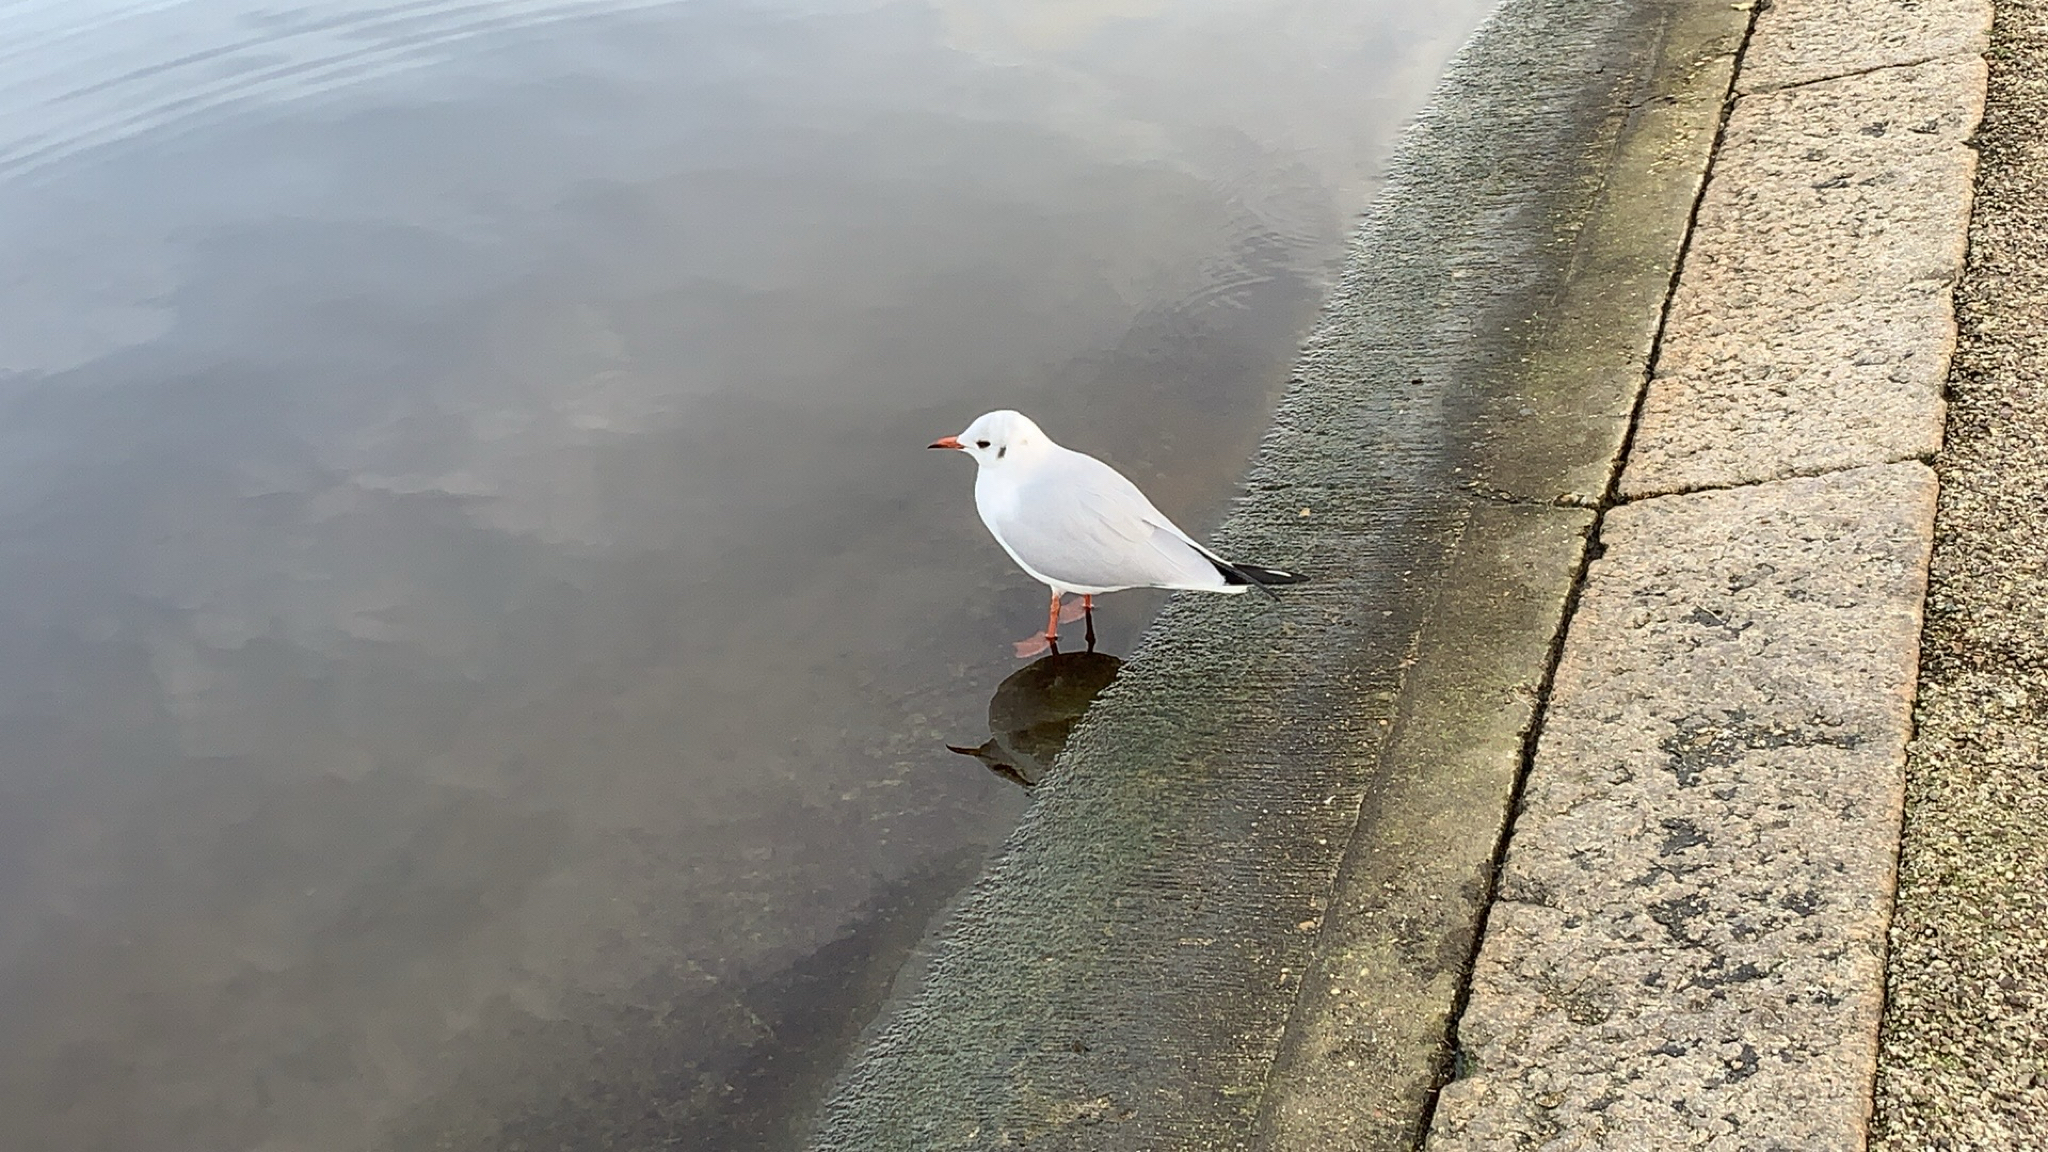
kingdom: Animalia
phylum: Chordata
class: Aves
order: Charadriiformes
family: Laridae
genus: Chroicocephalus
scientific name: Chroicocephalus ridibundus
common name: Black-headed gull
